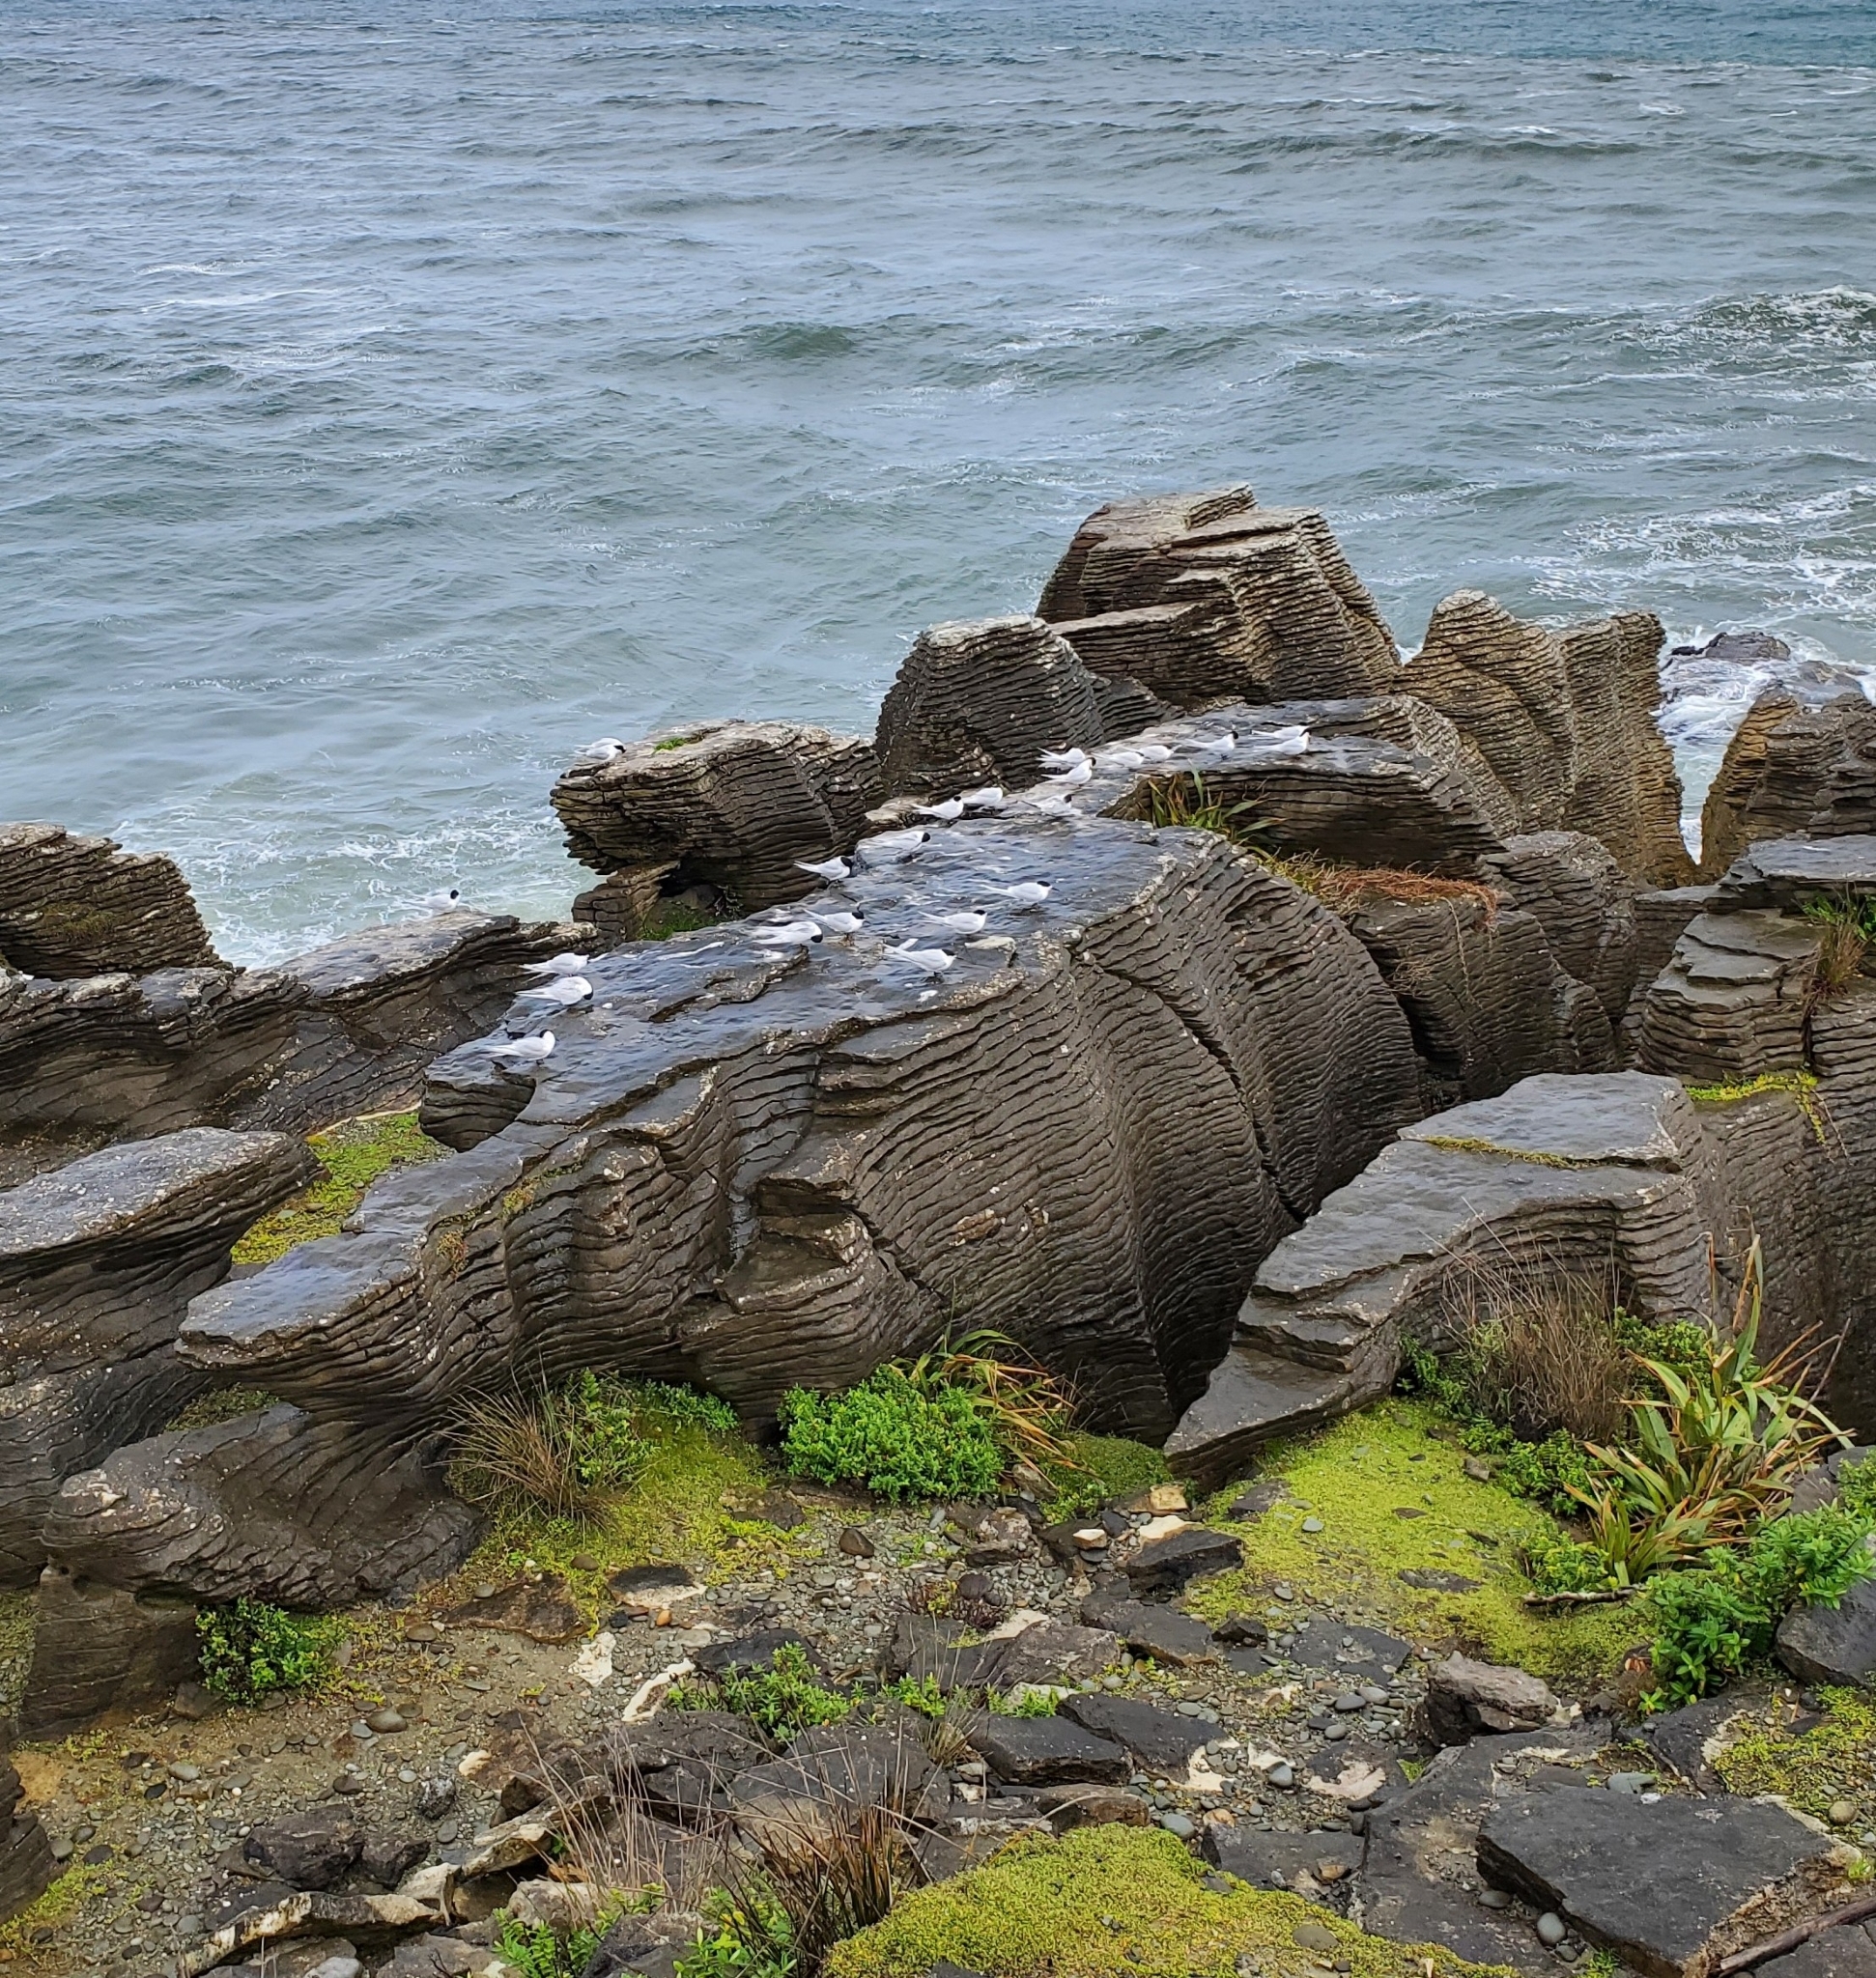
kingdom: Animalia
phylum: Chordata
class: Aves
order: Charadriiformes
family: Laridae
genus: Sterna
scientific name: Sterna striata
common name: White-fronted tern
